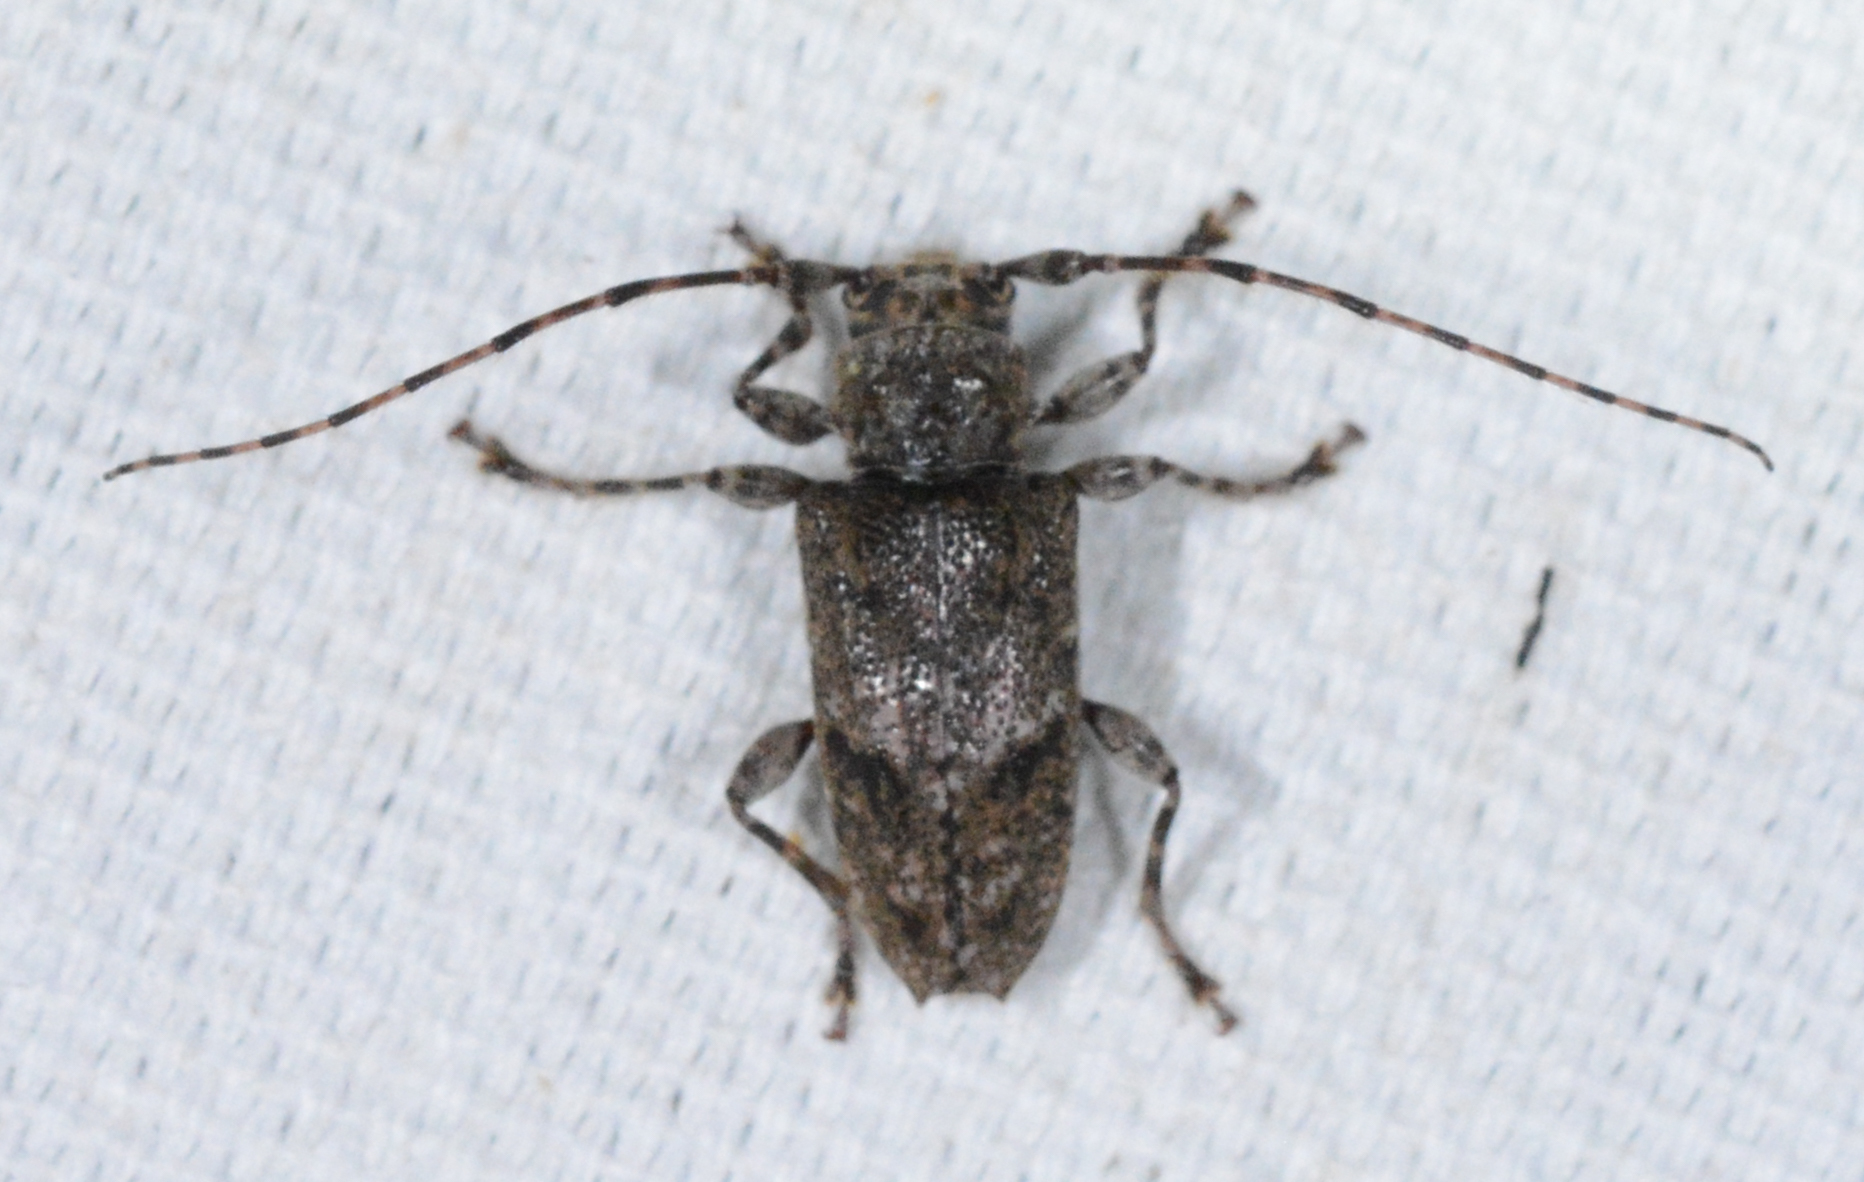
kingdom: Animalia
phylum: Arthropoda
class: Insecta
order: Coleoptera
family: Cerambycidae
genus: Aegomorphus
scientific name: Aegomorphus modestus
